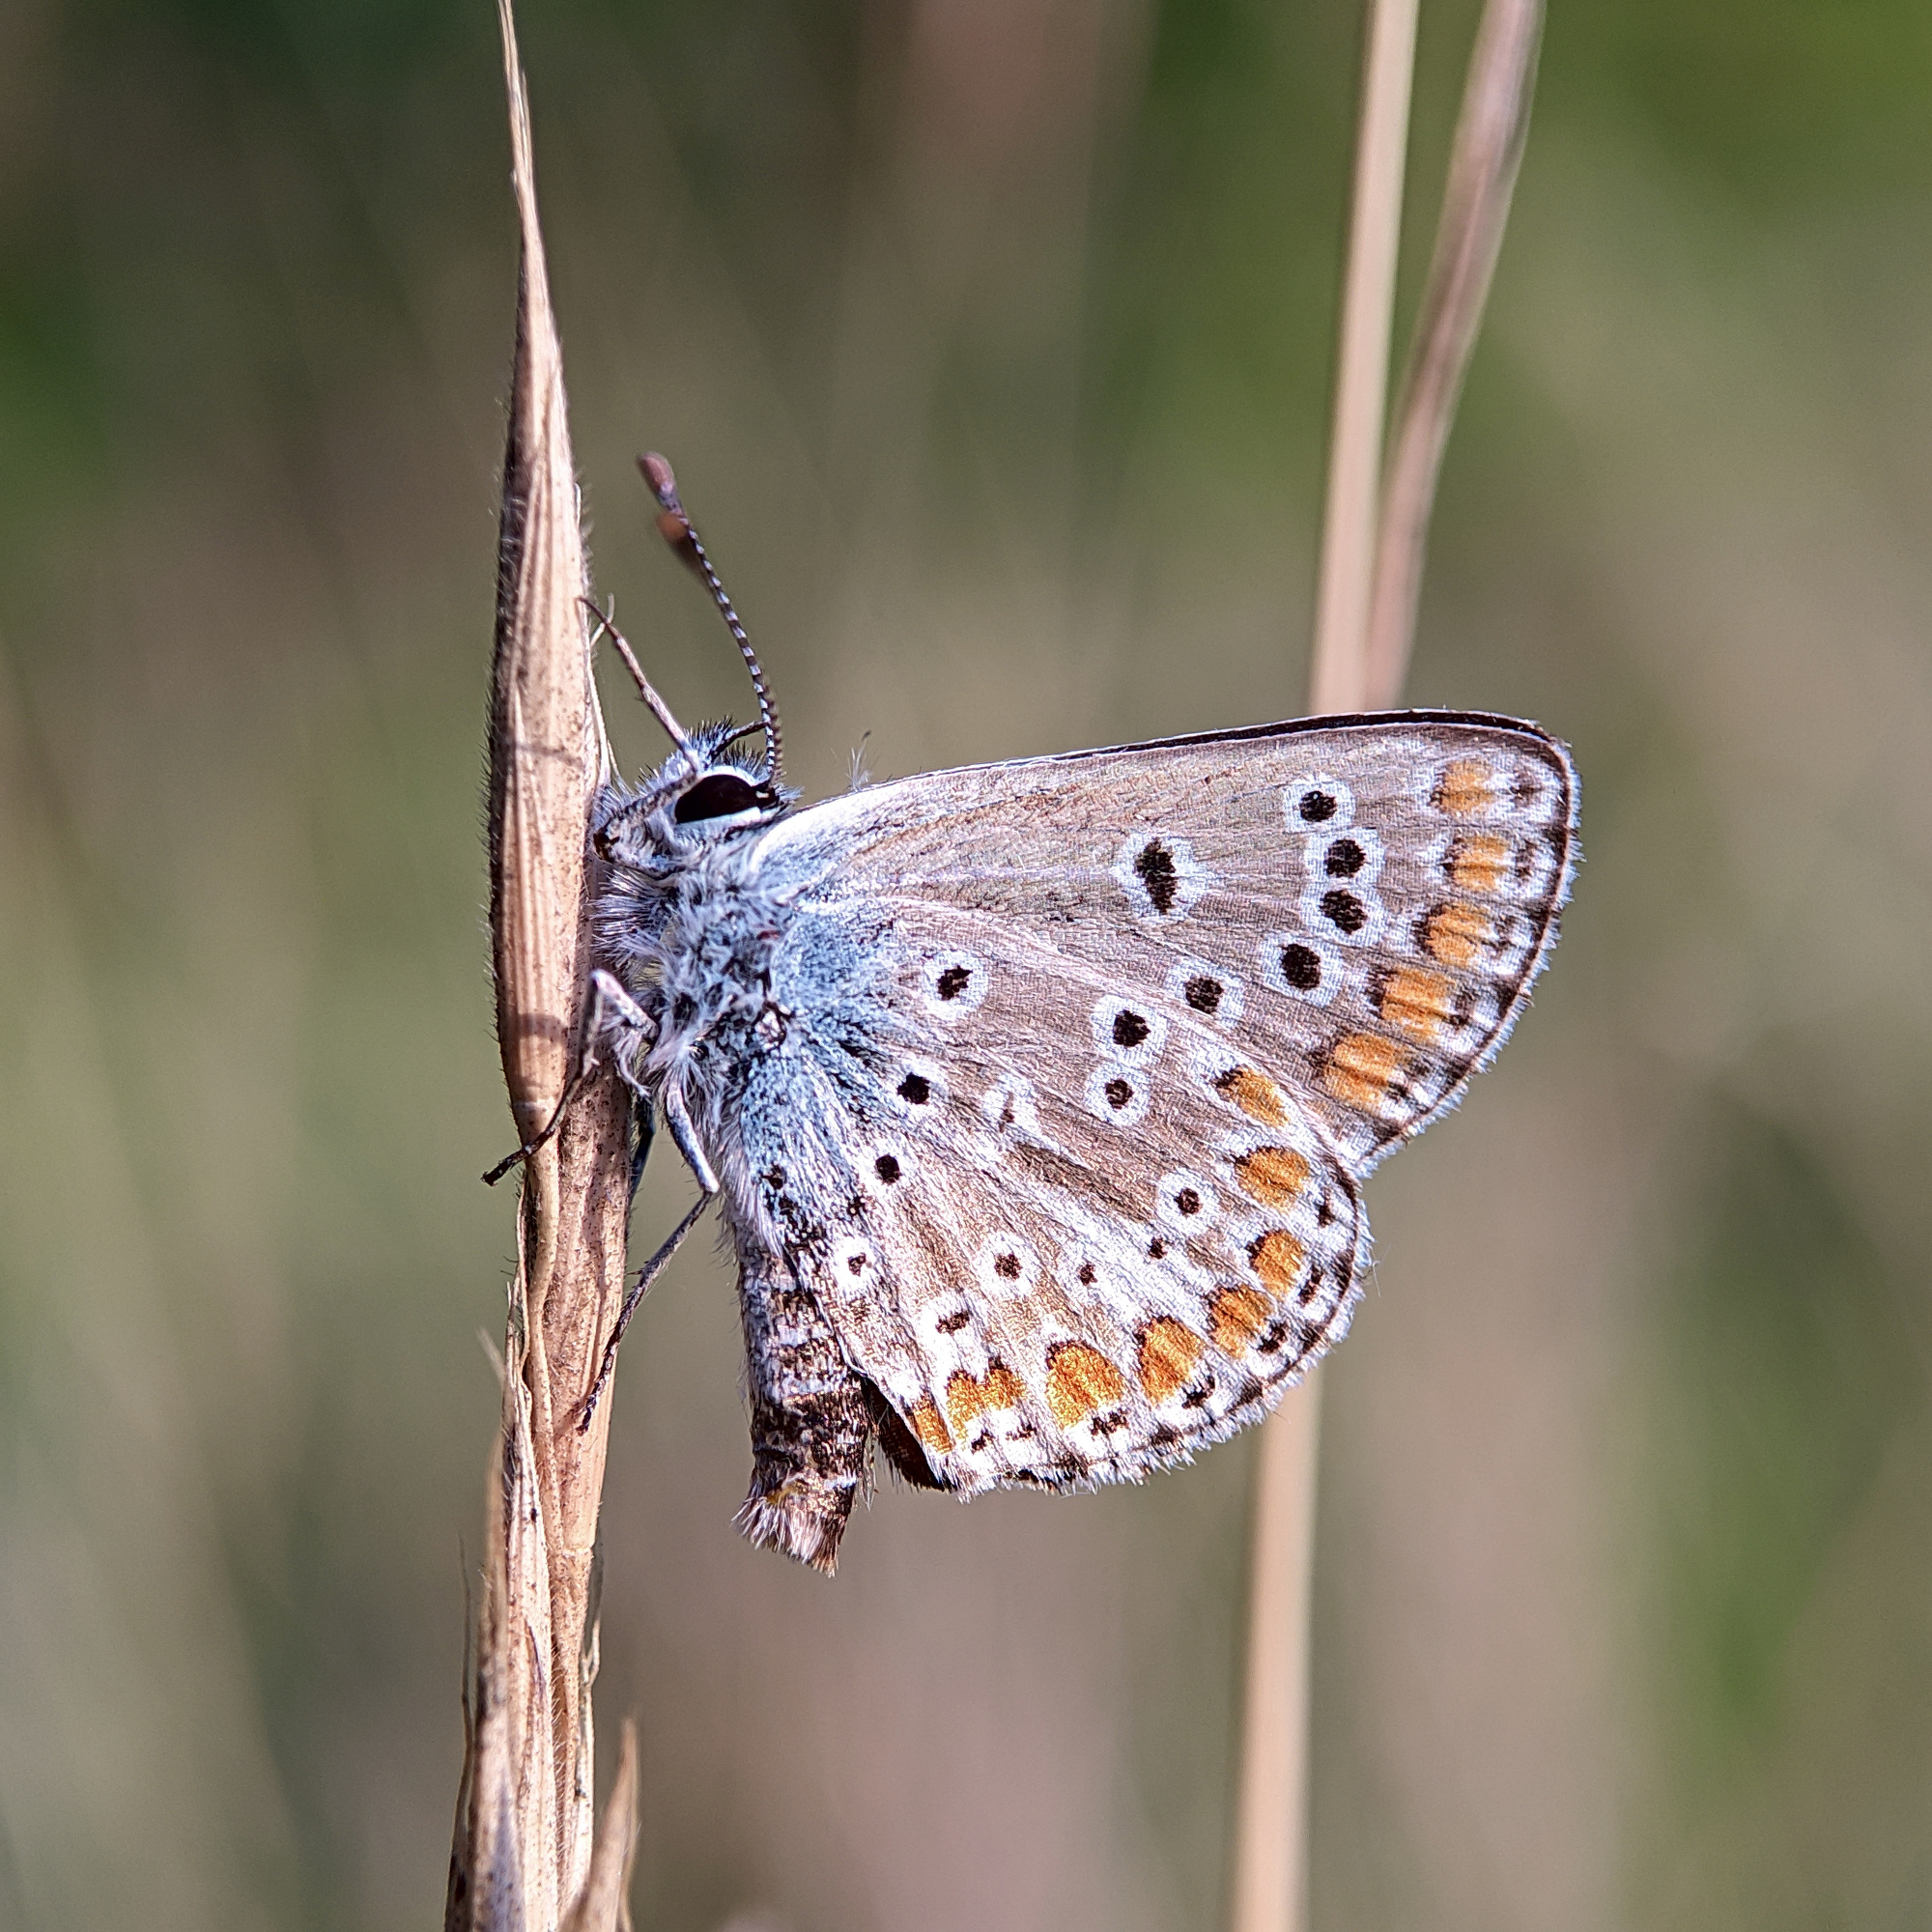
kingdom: Animalia
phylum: Arthropoda
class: Insecta
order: Lepidoptera
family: Lycaenidae
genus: Aricia
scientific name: Aricia agestis
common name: Brown argus
